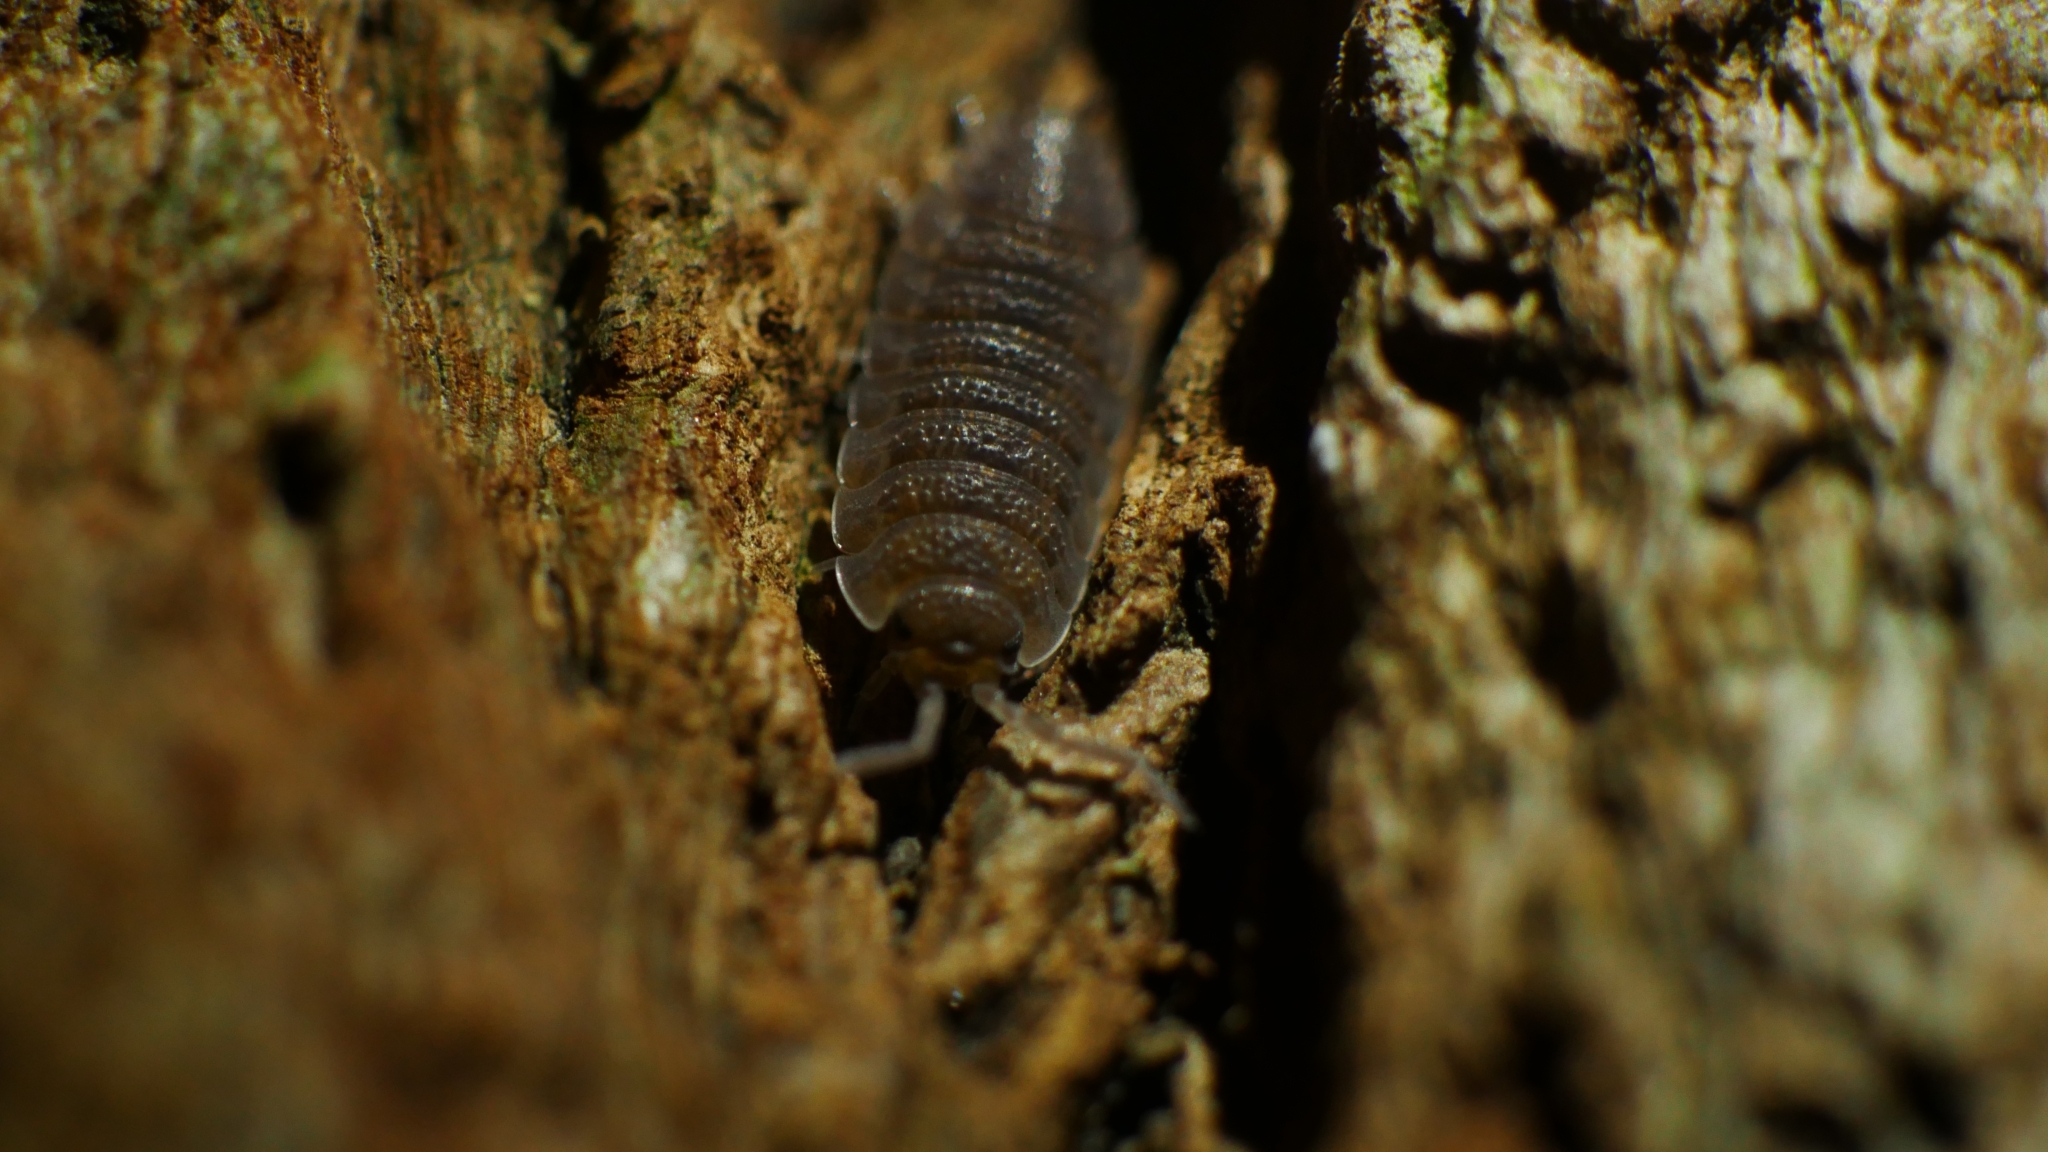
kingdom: Animalia
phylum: Arthropoda
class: Malacostraca
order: Isopoda
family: Porcellionidae
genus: Porcellio
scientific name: Porcellio scaber
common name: Common rough woodlouse
